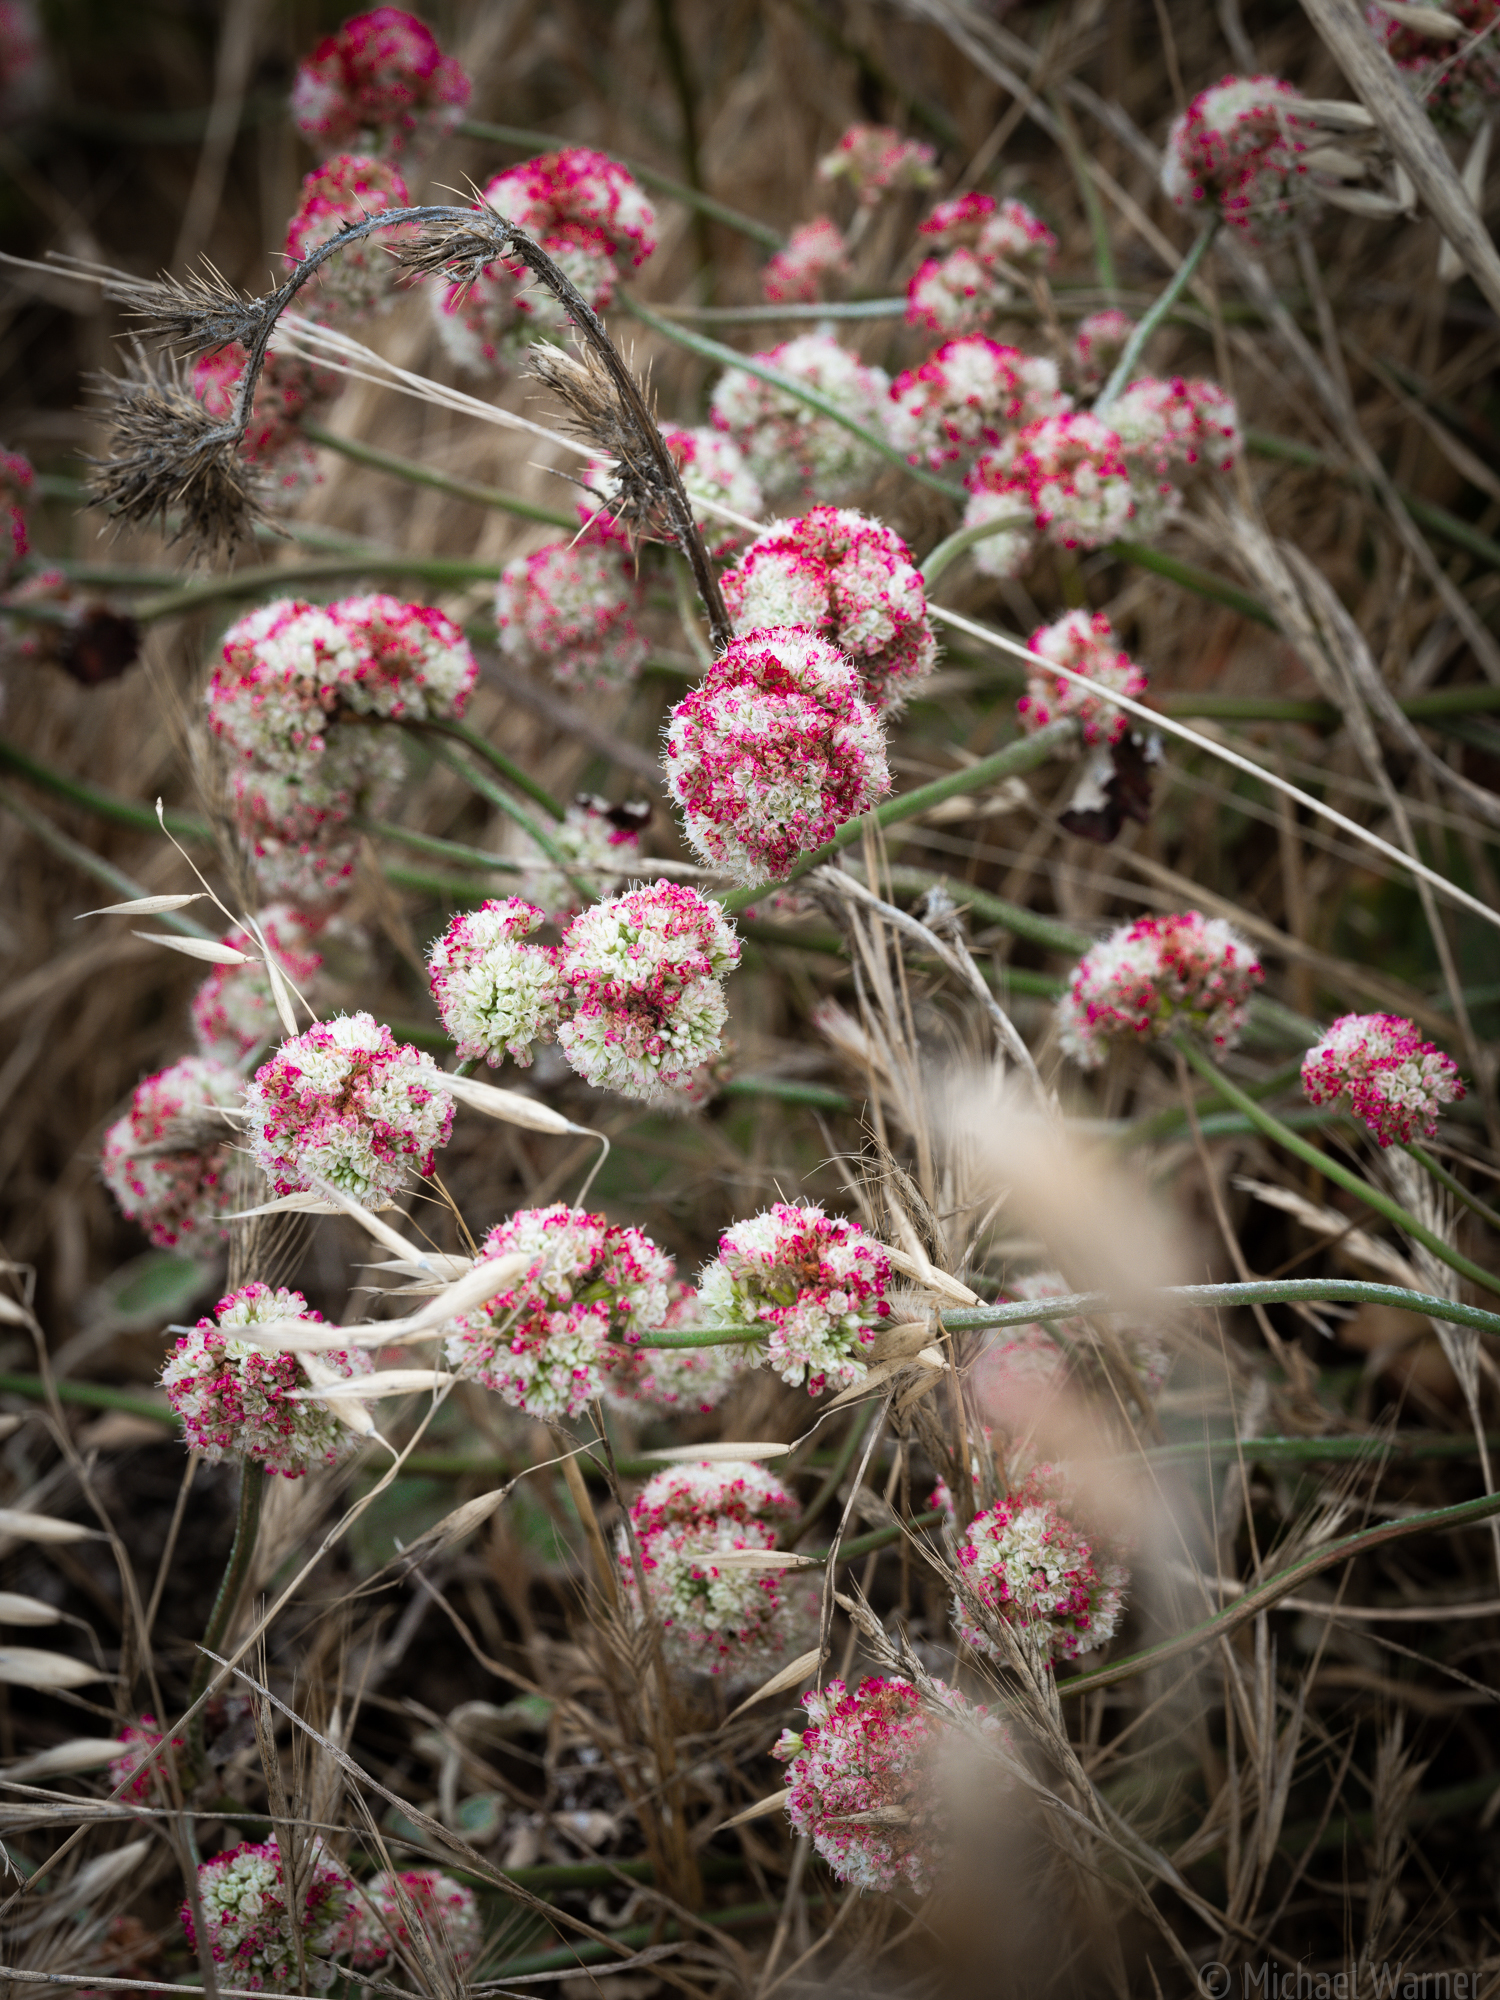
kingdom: Plantae
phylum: Tracheophyta
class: Magnoliopsida
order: Caryophyllales
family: Polygonaceae
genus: Eriogonum
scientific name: Eriogonum latifolium
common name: Seaside wild buckwheat
